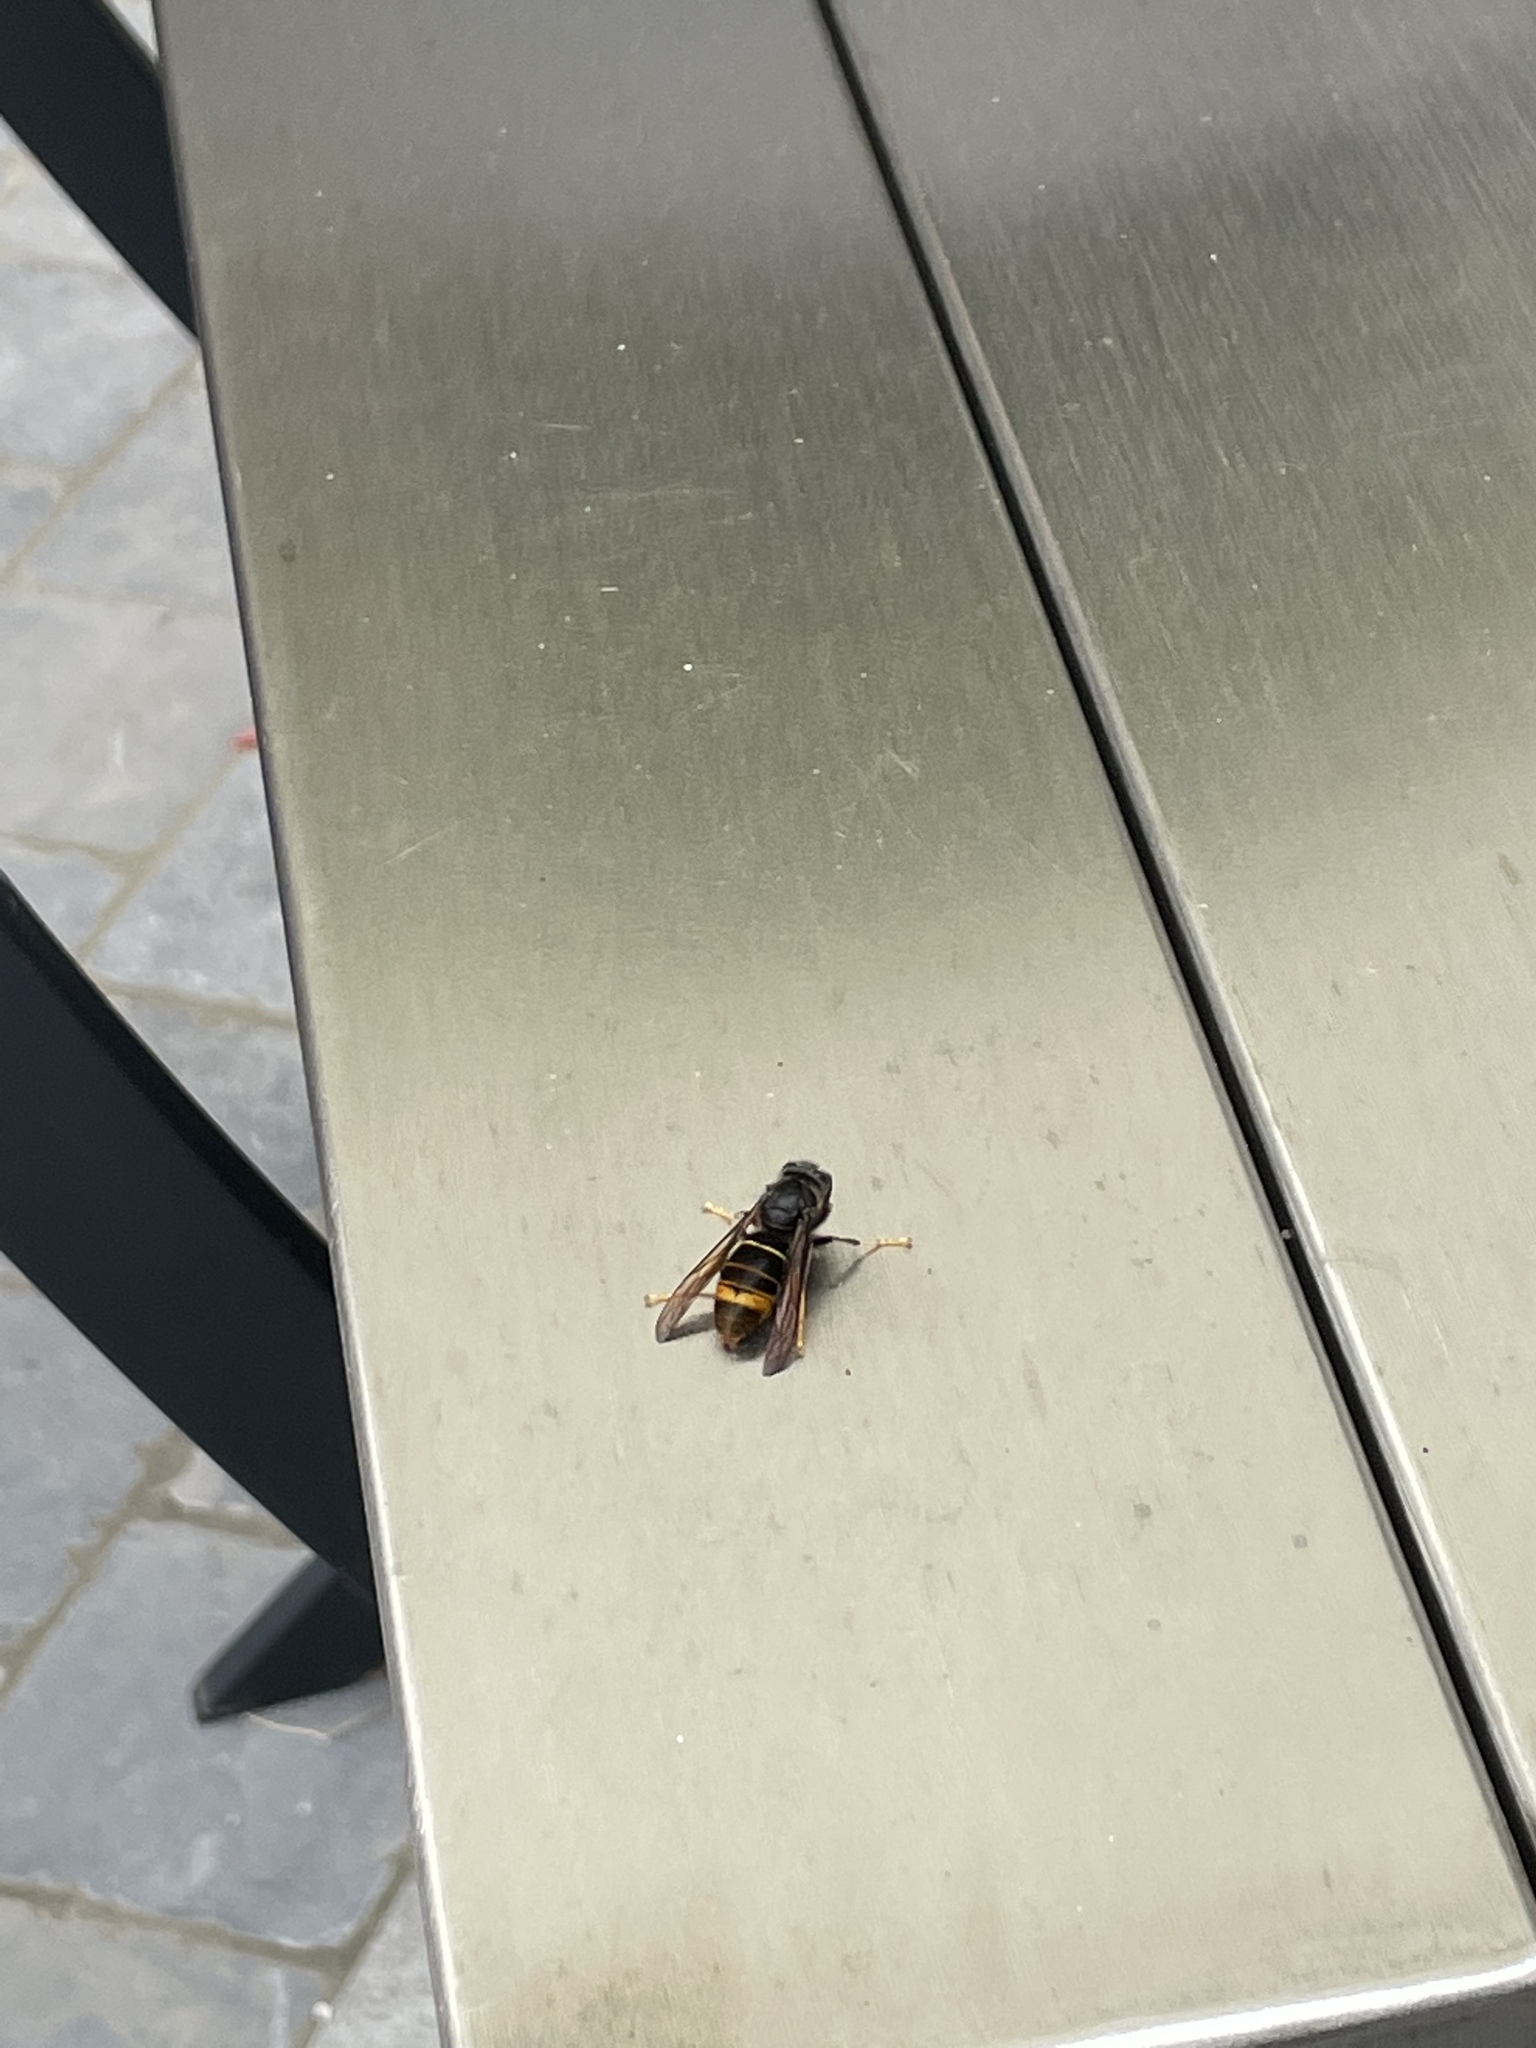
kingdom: Animalia
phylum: Arthropoda
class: Insecta
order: Hymenoptera
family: Vespidae
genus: Vespa
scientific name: Vespa velutina
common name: Asian hornet
